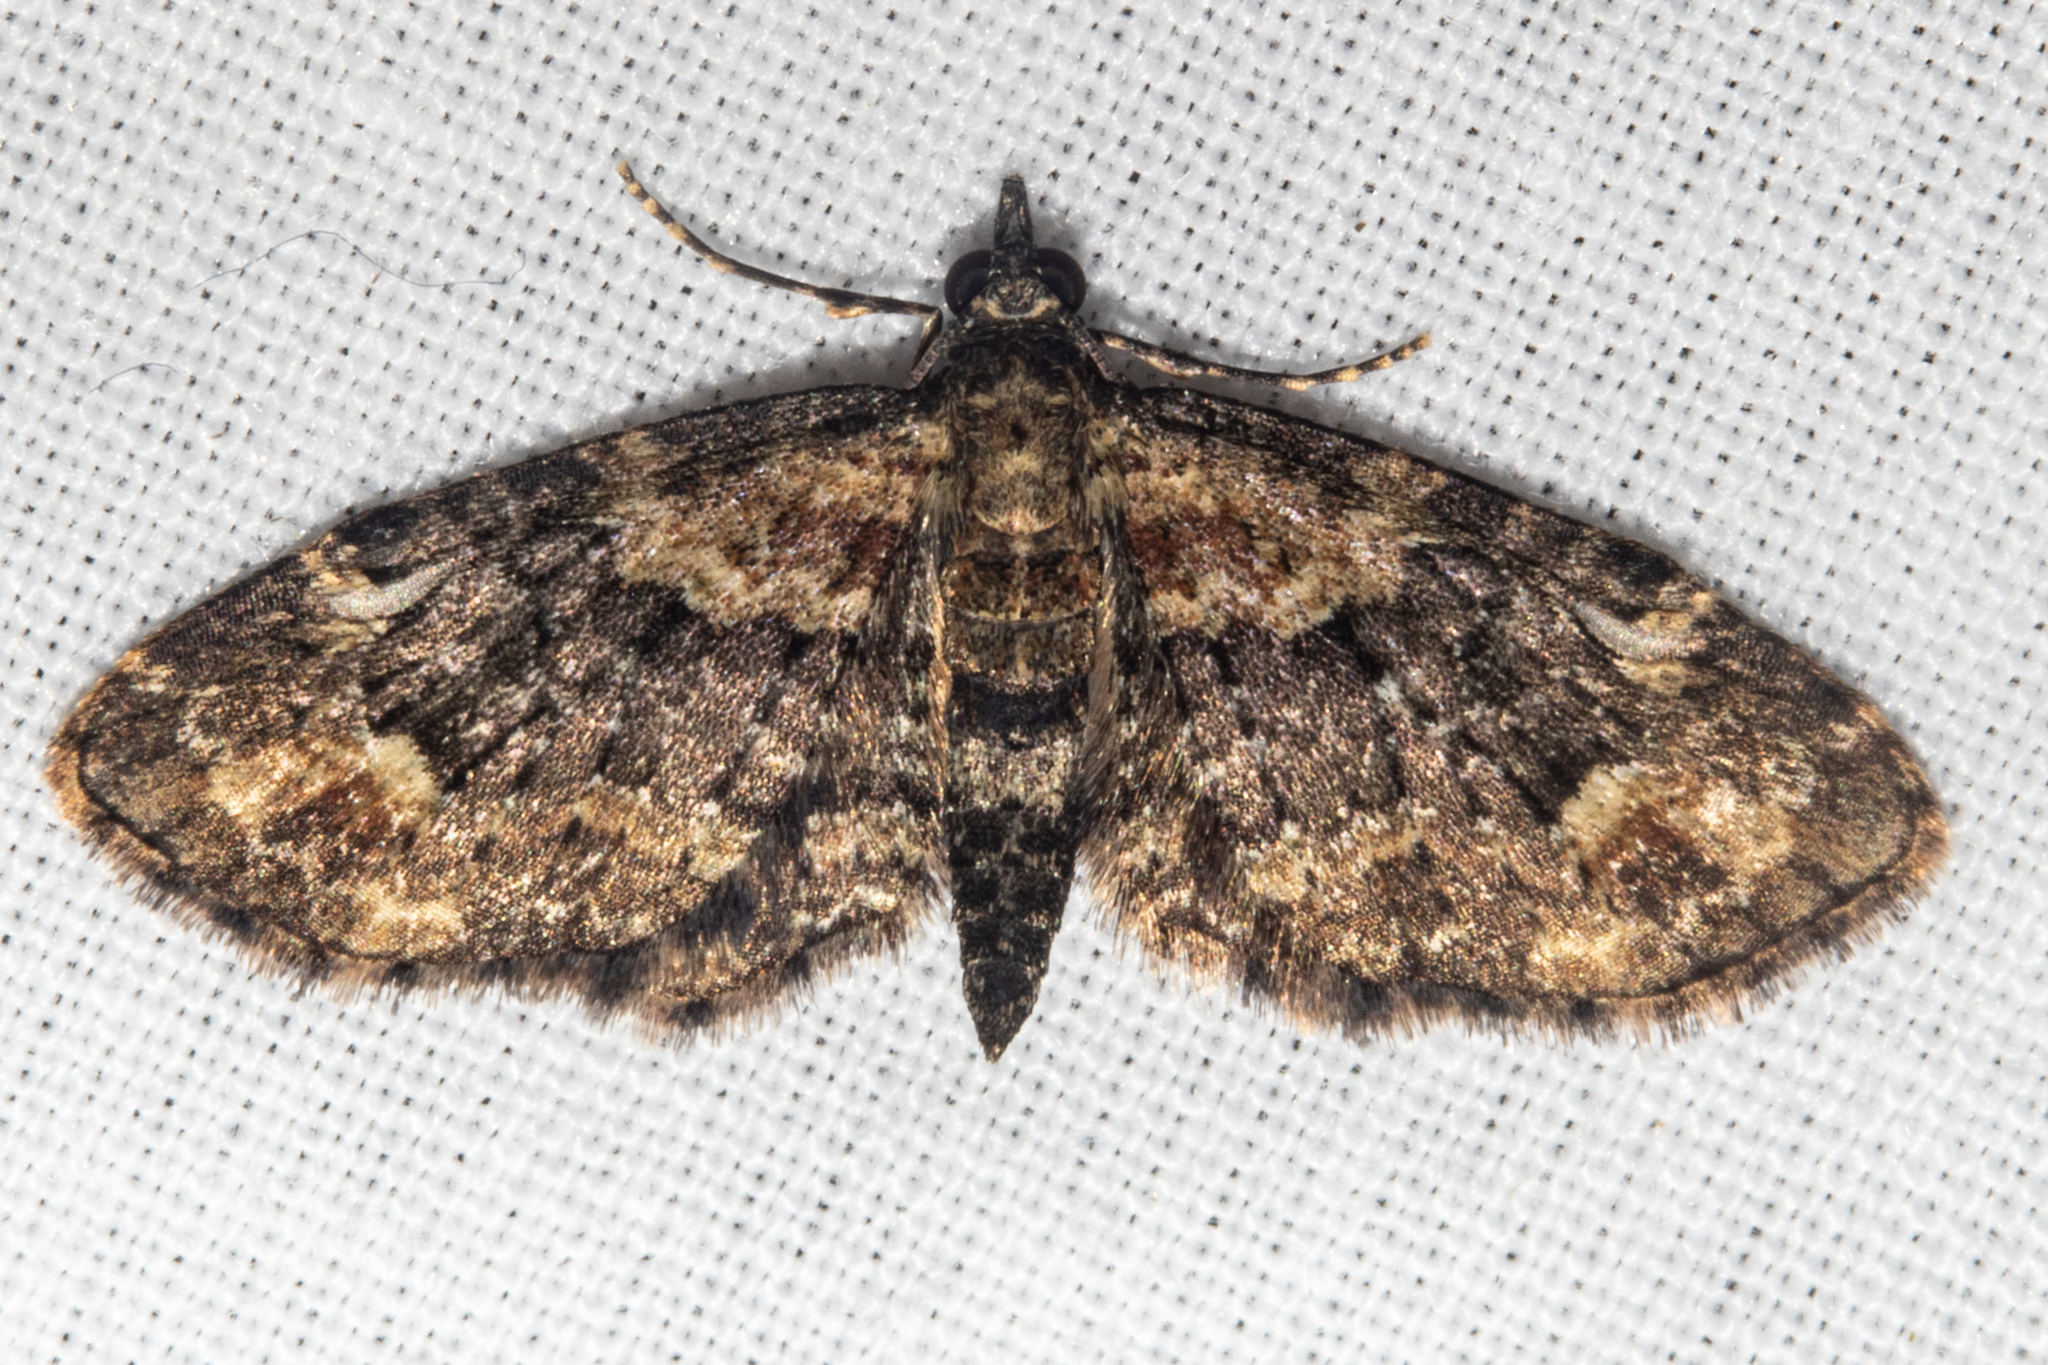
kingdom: Animalia
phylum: Arthropoda
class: Insecta
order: Lepidoptera
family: Geometridae
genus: Pasiphilodes
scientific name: Pasiphilodes testulata
